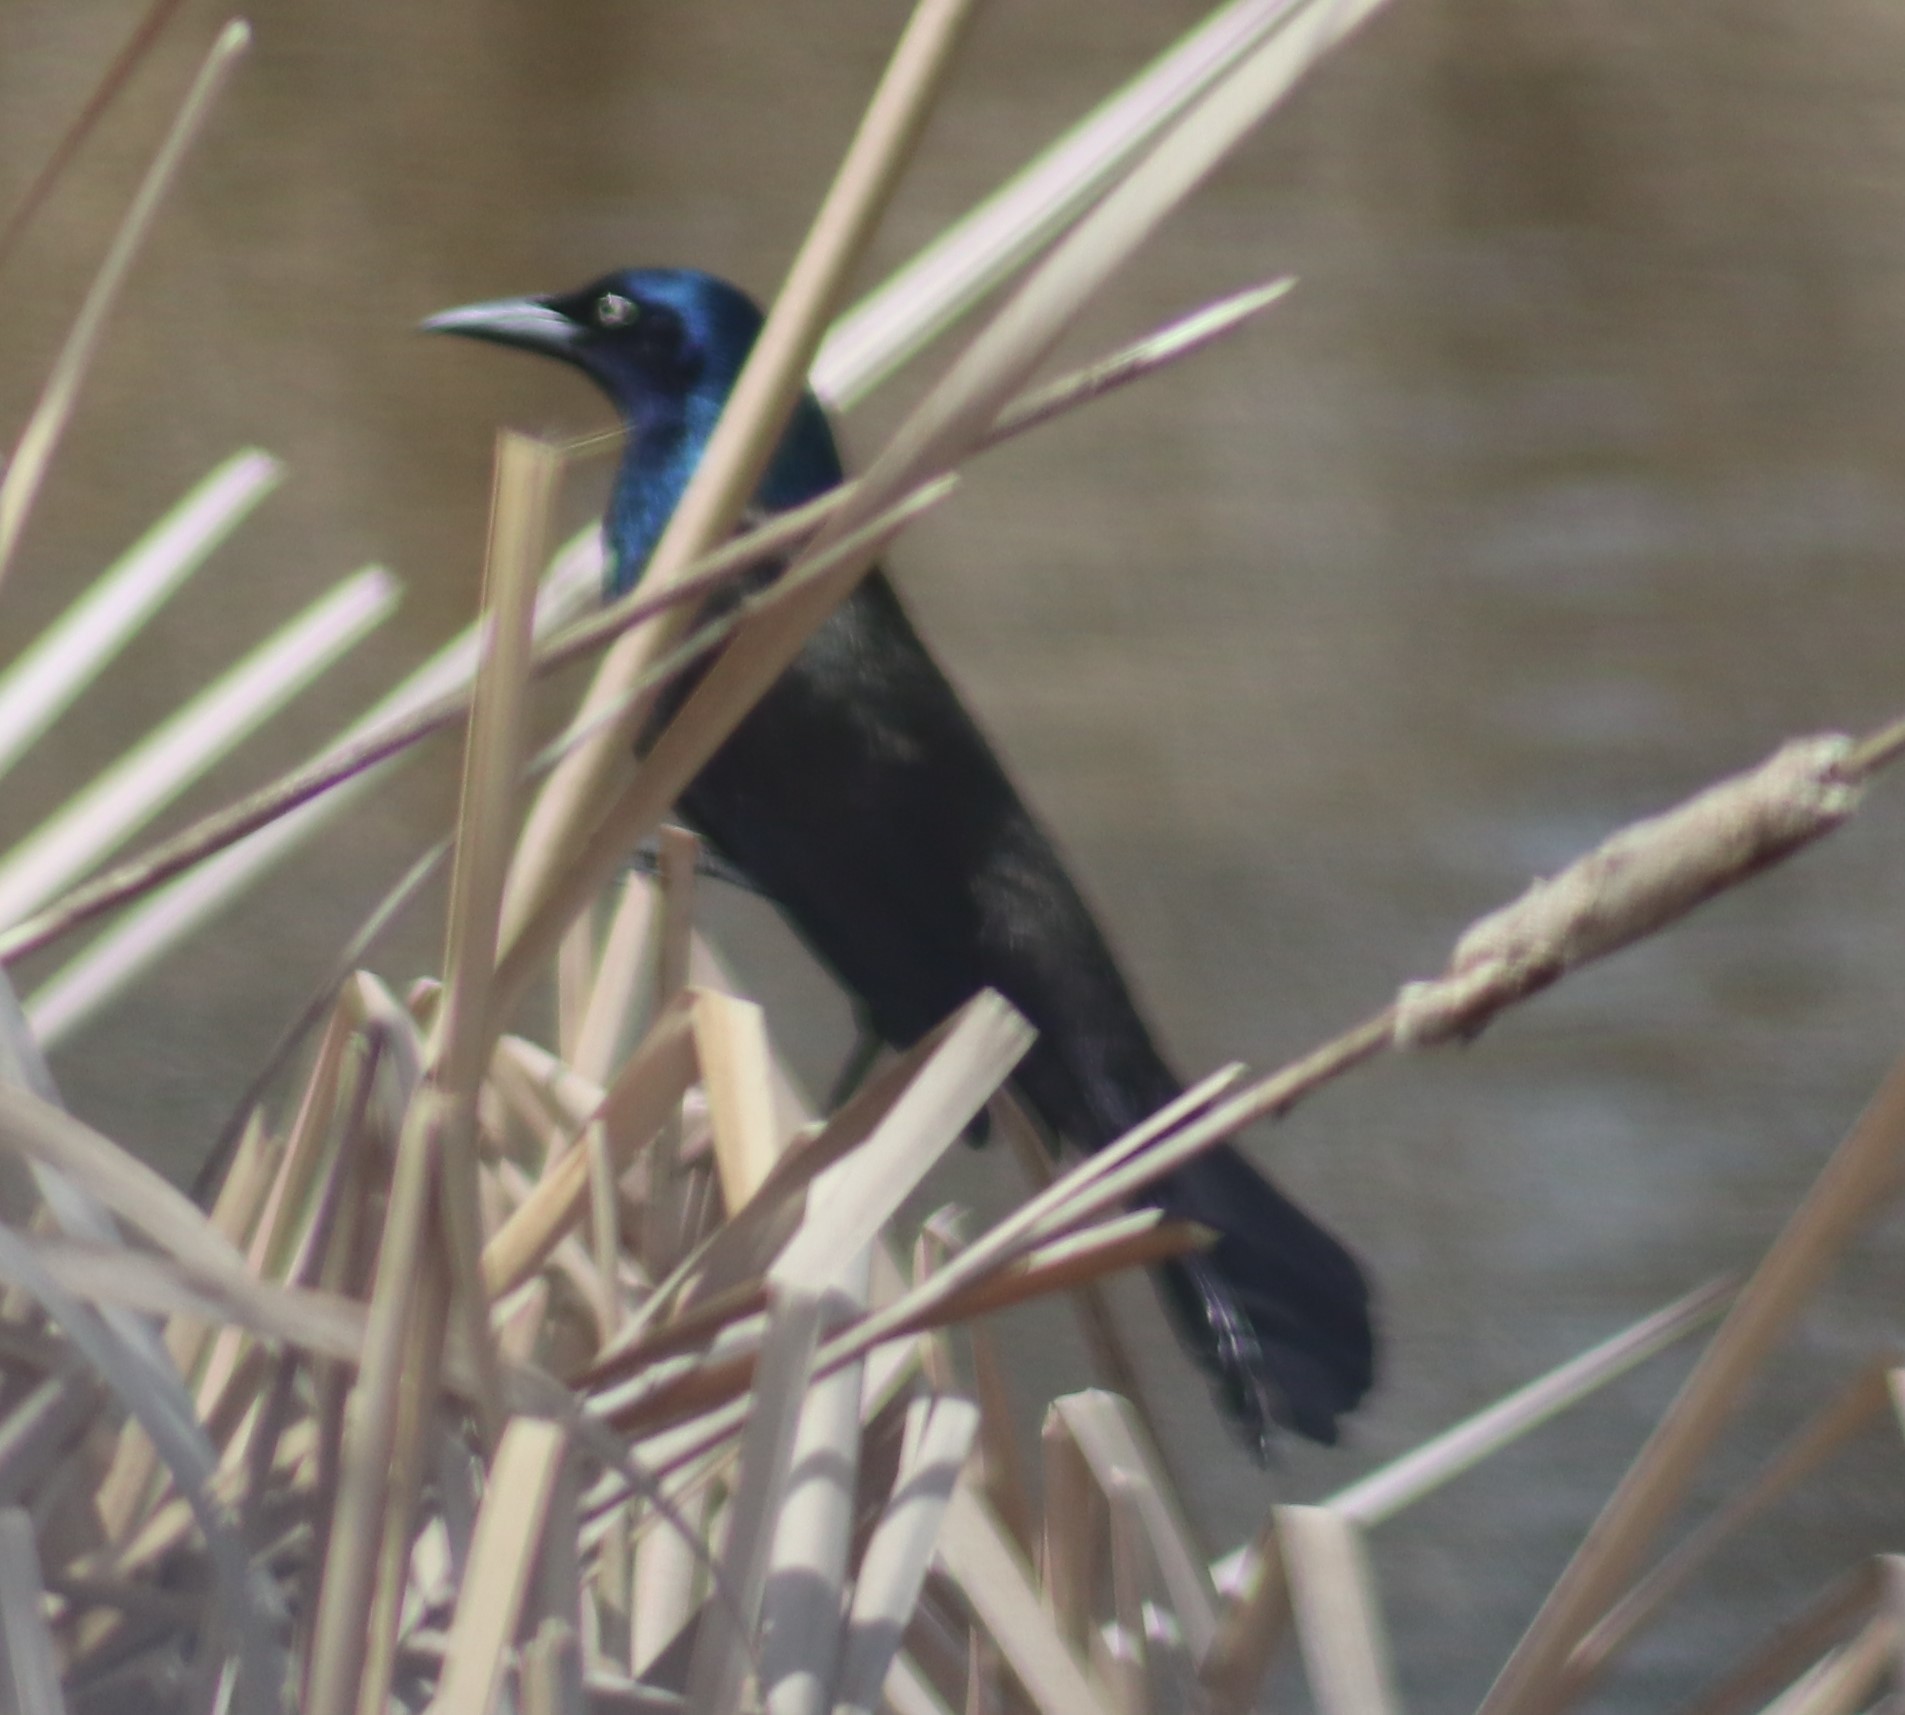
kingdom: Animalia
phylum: Chordata
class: Aves
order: Passeriformes
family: Icteridae
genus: Quiscalus
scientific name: Quiscalus quiscula
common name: Common grackle
